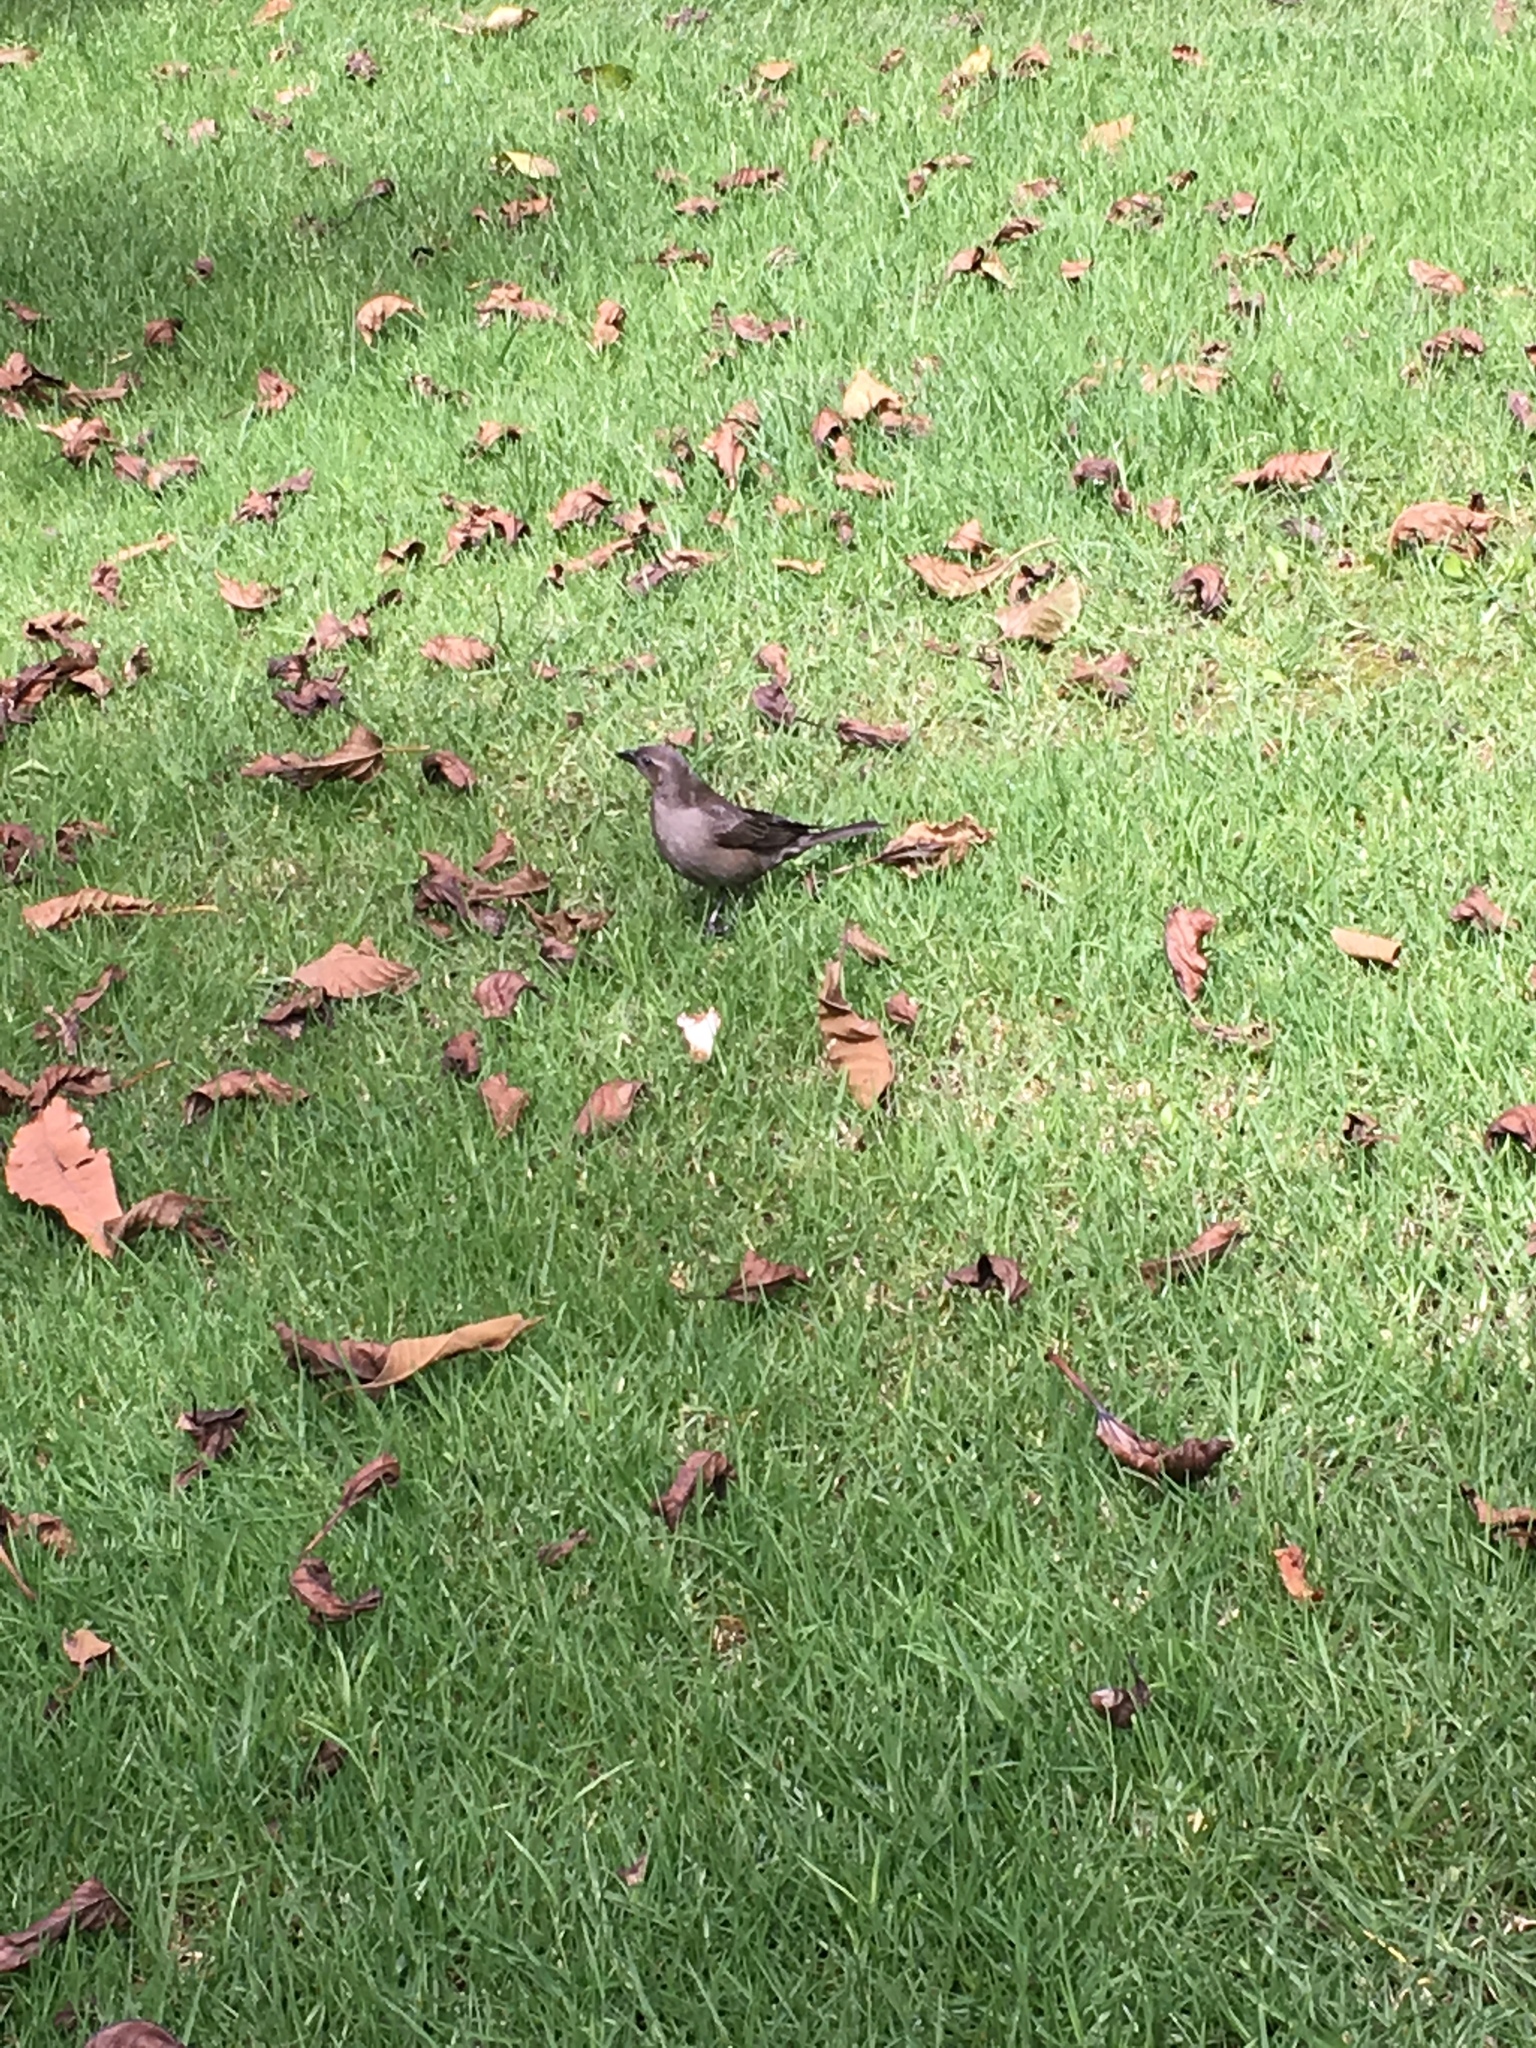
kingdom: Animalia
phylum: Chordata
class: Aves
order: Passeriformes
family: Icteridae
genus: Molothrus
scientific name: Molothrus bonariensis
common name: Shiny cowbird
